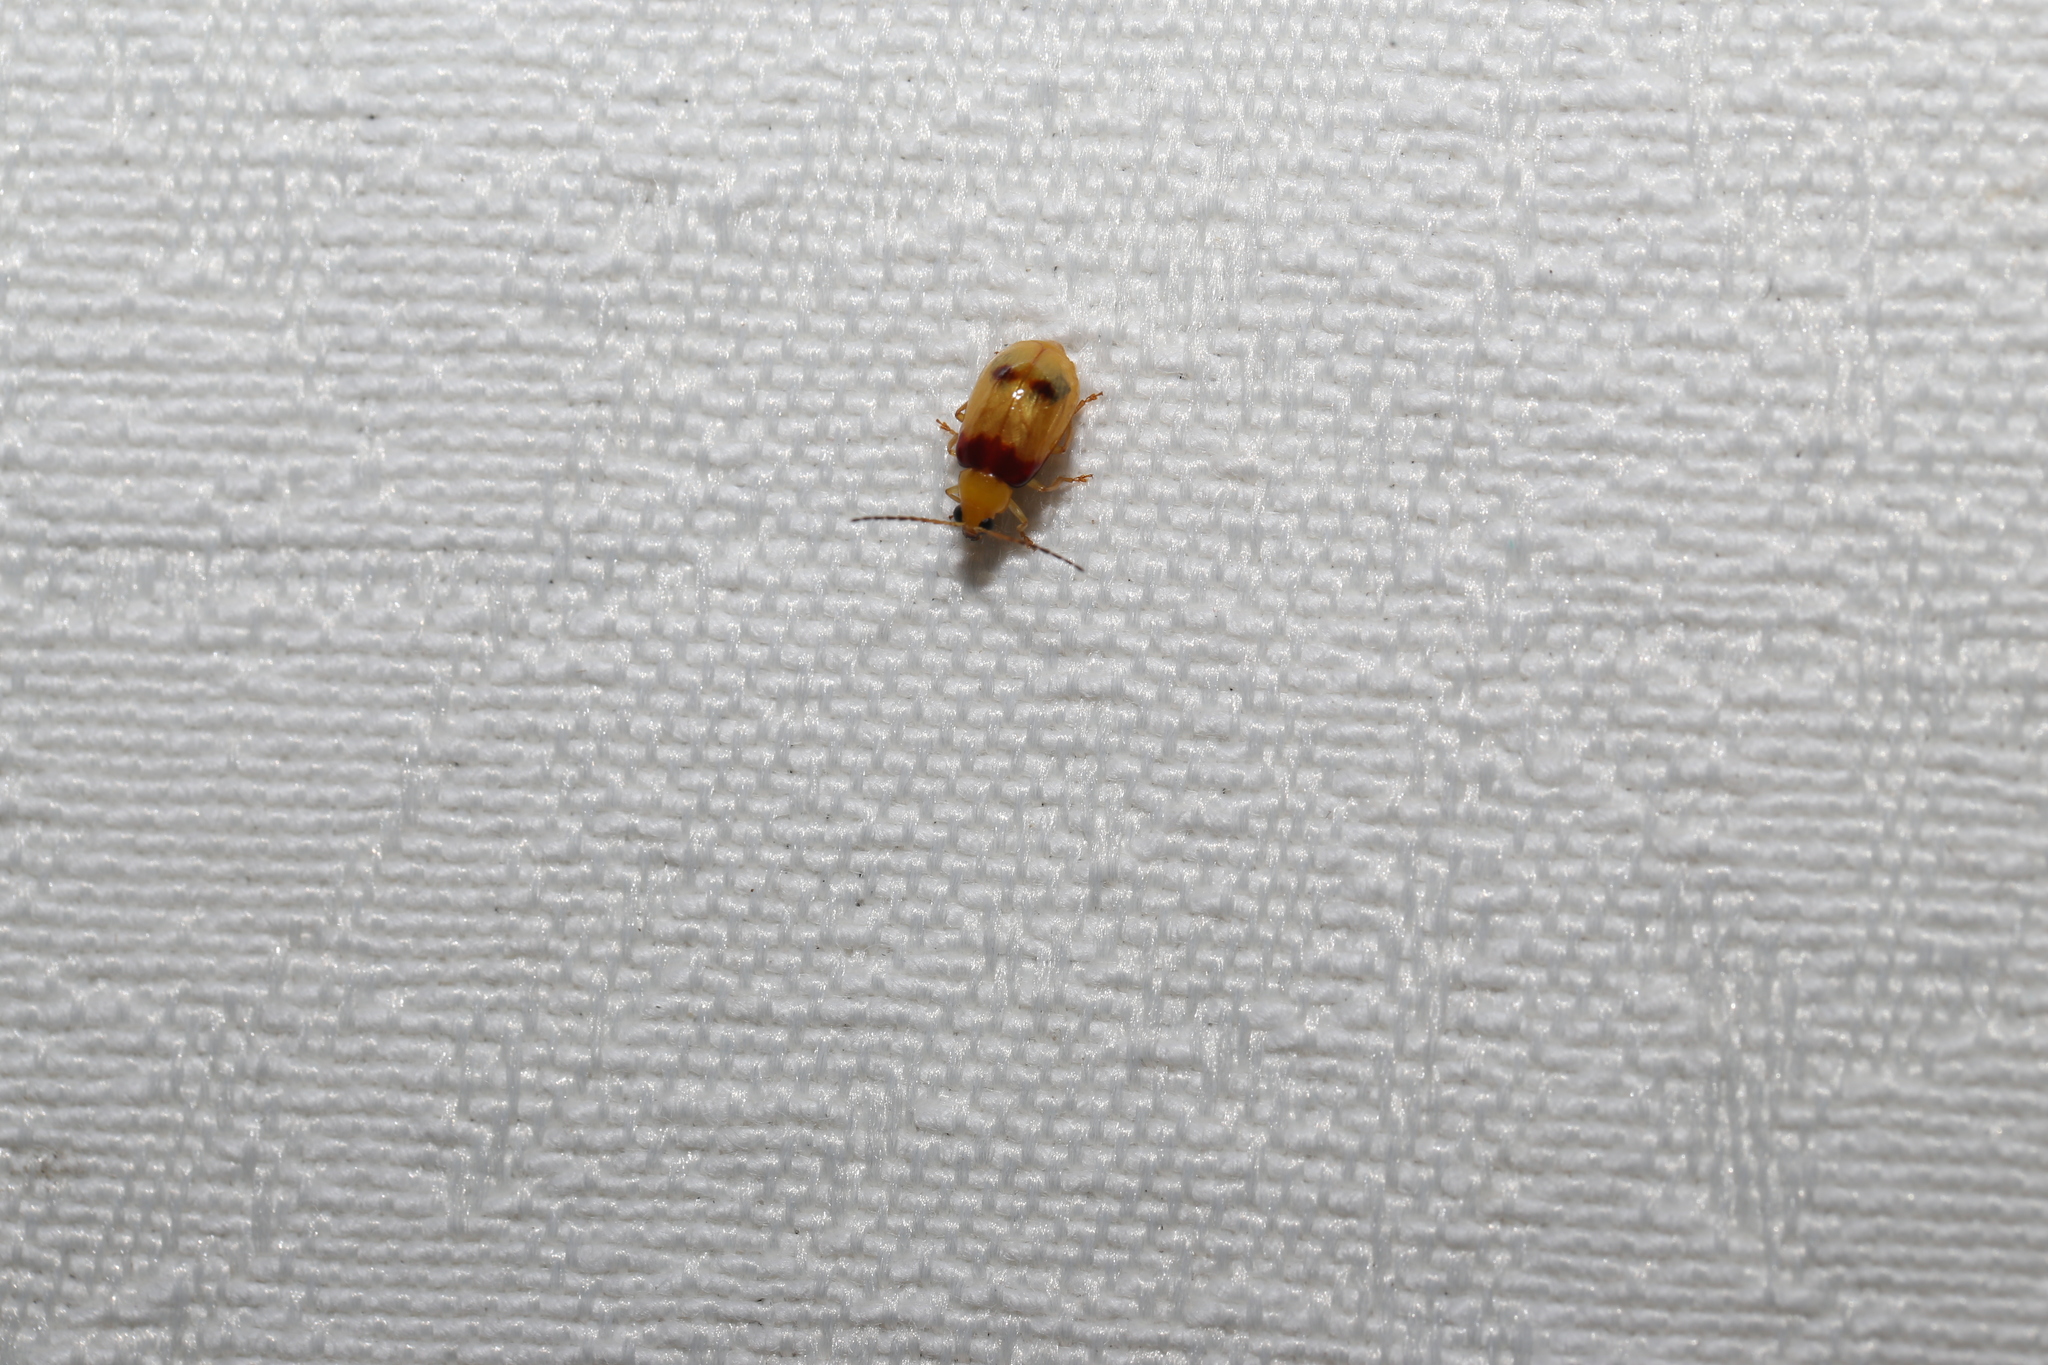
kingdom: Animalia
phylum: Arthropoda
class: Insecta
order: Coleoptera
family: Chrysomelidae
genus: Monolepta
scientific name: Monolepta
